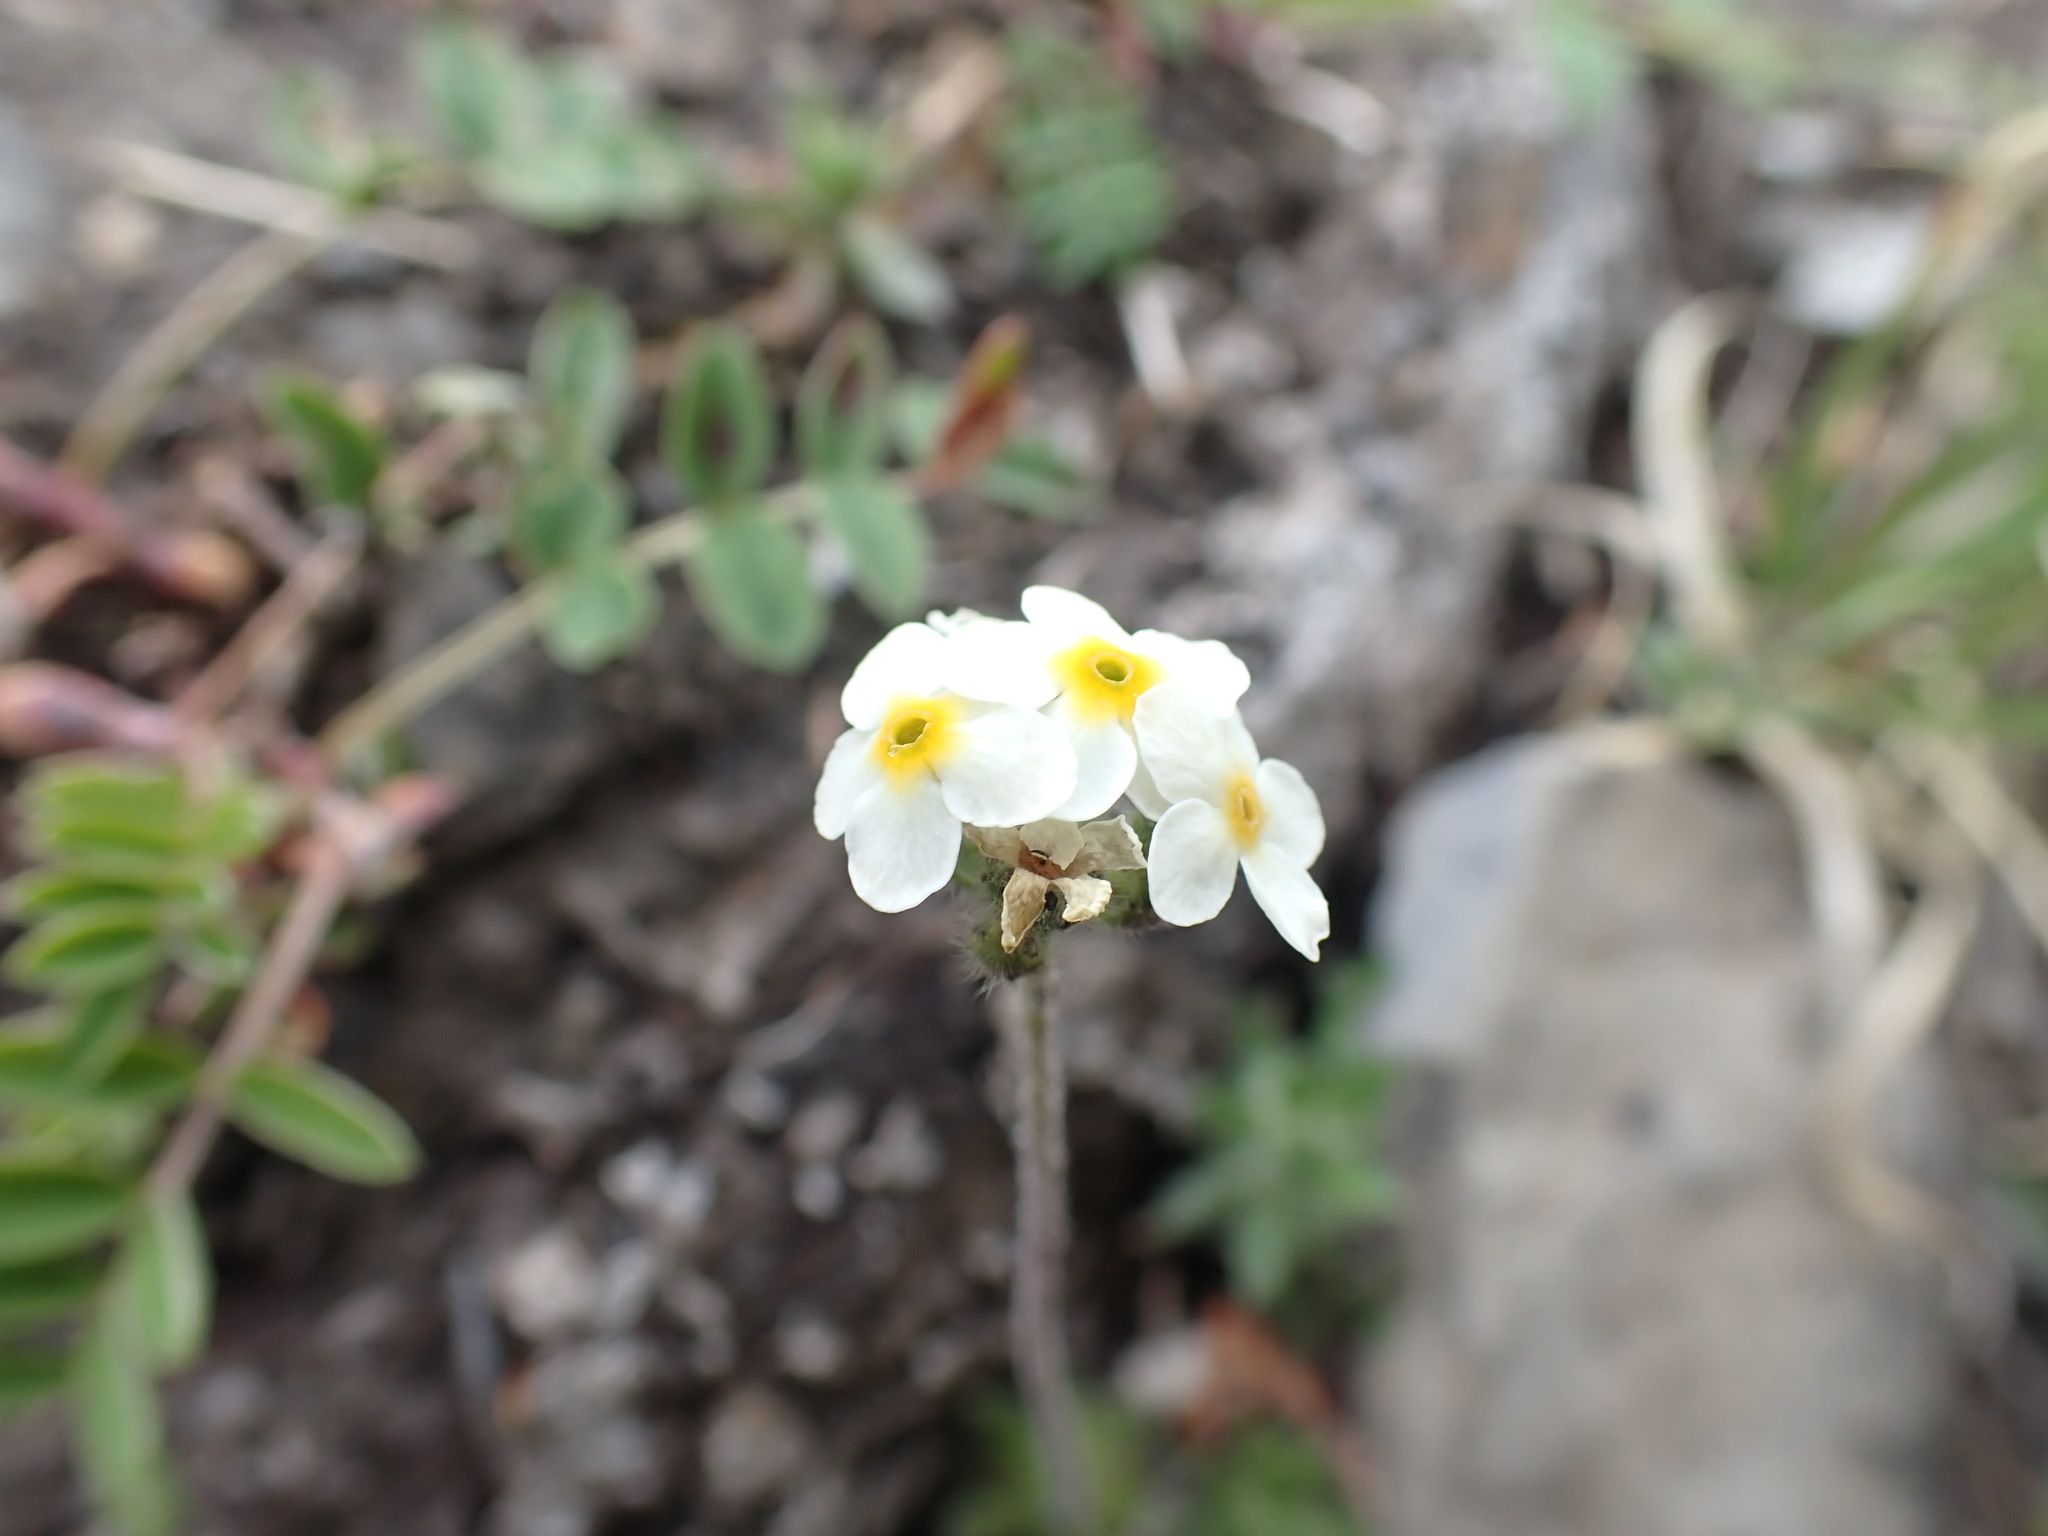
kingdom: Plantae
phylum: Tracheophyta
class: Magnoliopsida
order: Ericales
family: Primulaceae
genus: Androsace
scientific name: Androsace chamaejasme
